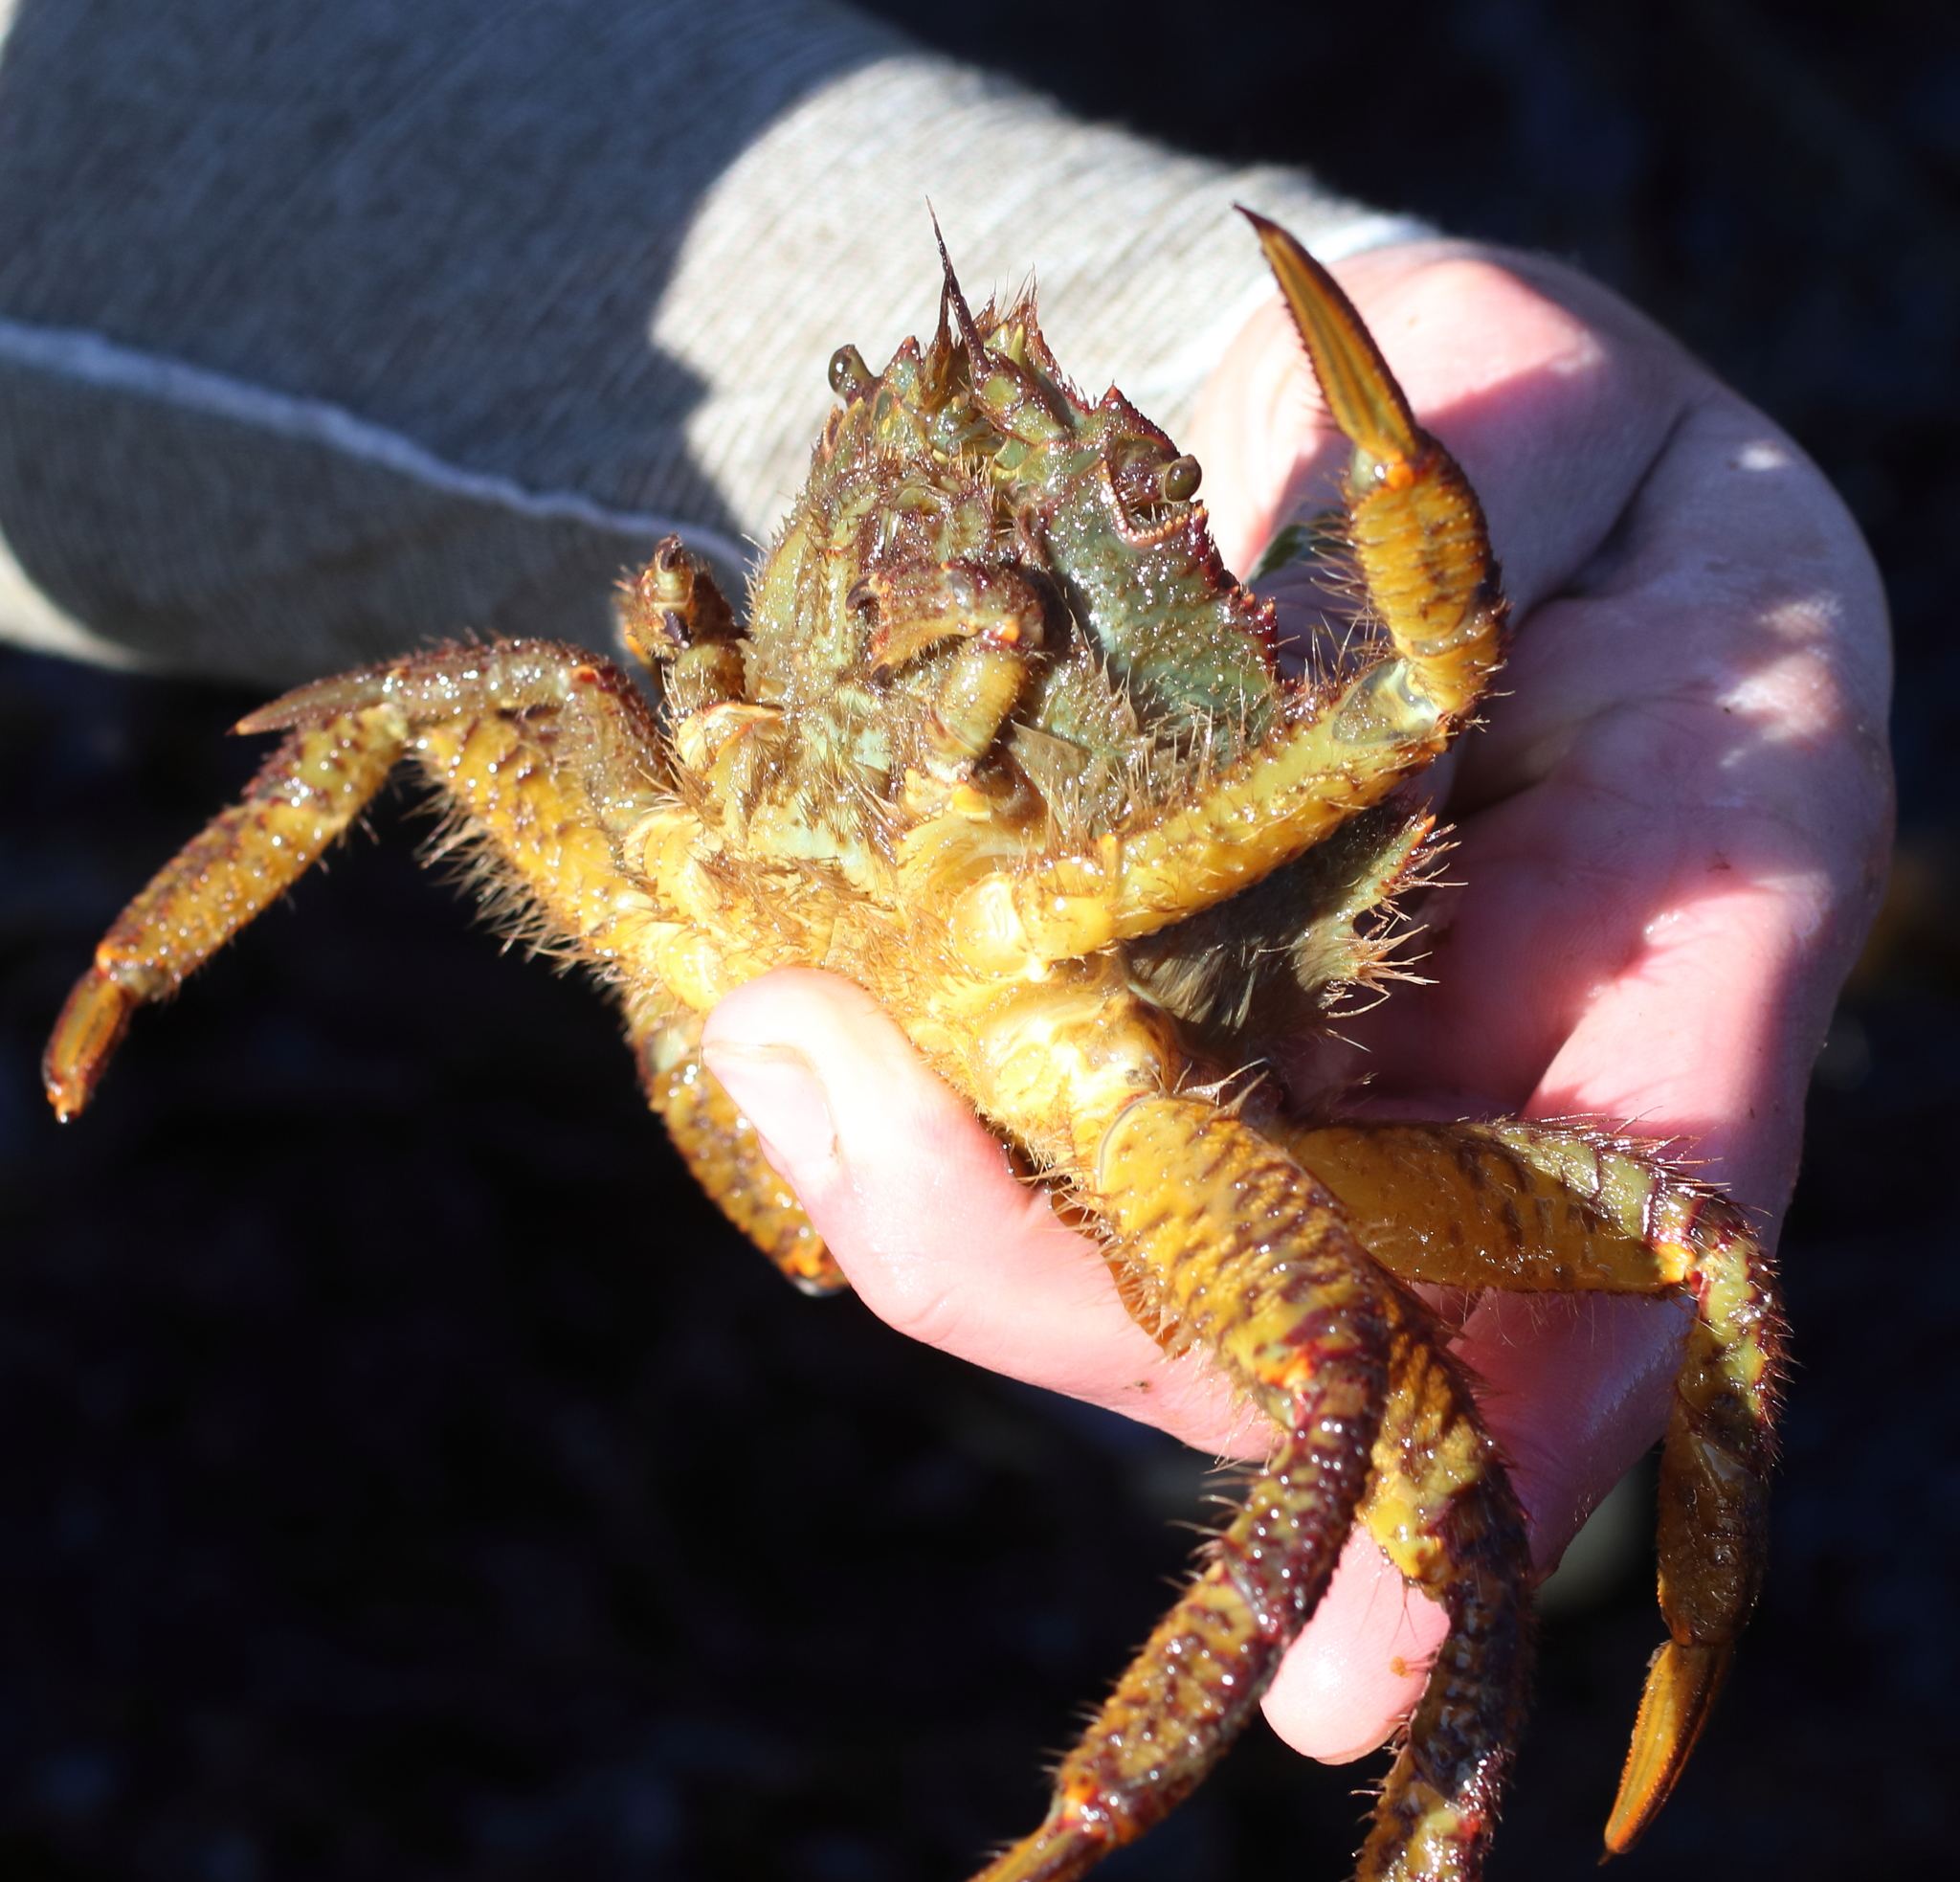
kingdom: Animalia
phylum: Arthropoda
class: Malacostraca
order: Decapoda
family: Cheiragonidae
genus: Telmessus
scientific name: Telmessus cheiragonus
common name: Helmet crab
